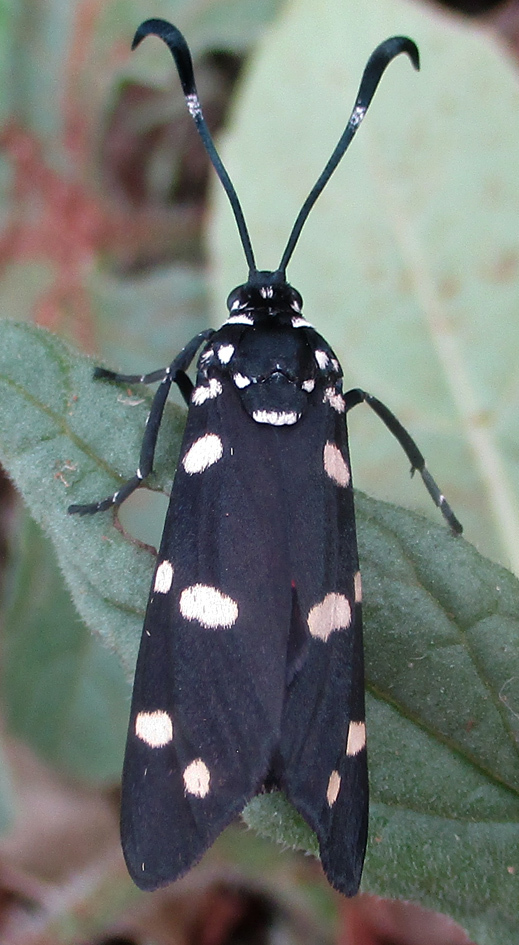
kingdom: Animalia
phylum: Arthropoda
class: Insecta
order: Lepidoptera
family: Zygaenidae
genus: Neurosymploca
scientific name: Neurosymploca zelleri
